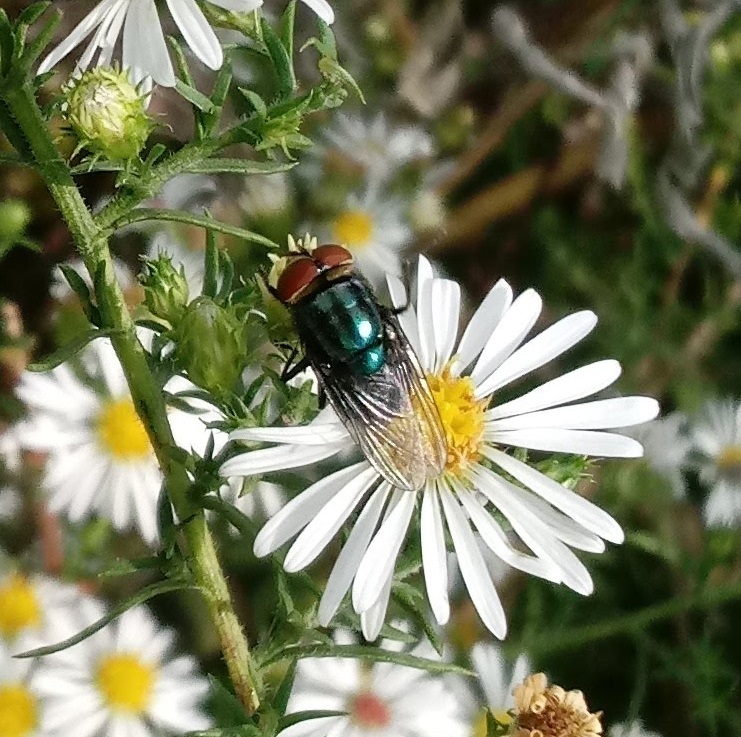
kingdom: Animalia
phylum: Arthropoda
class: Insecta
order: Diptera
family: Calliphoridae
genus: Cochliomyia
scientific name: Cochliomyia macellaria
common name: Secondary screwworm
